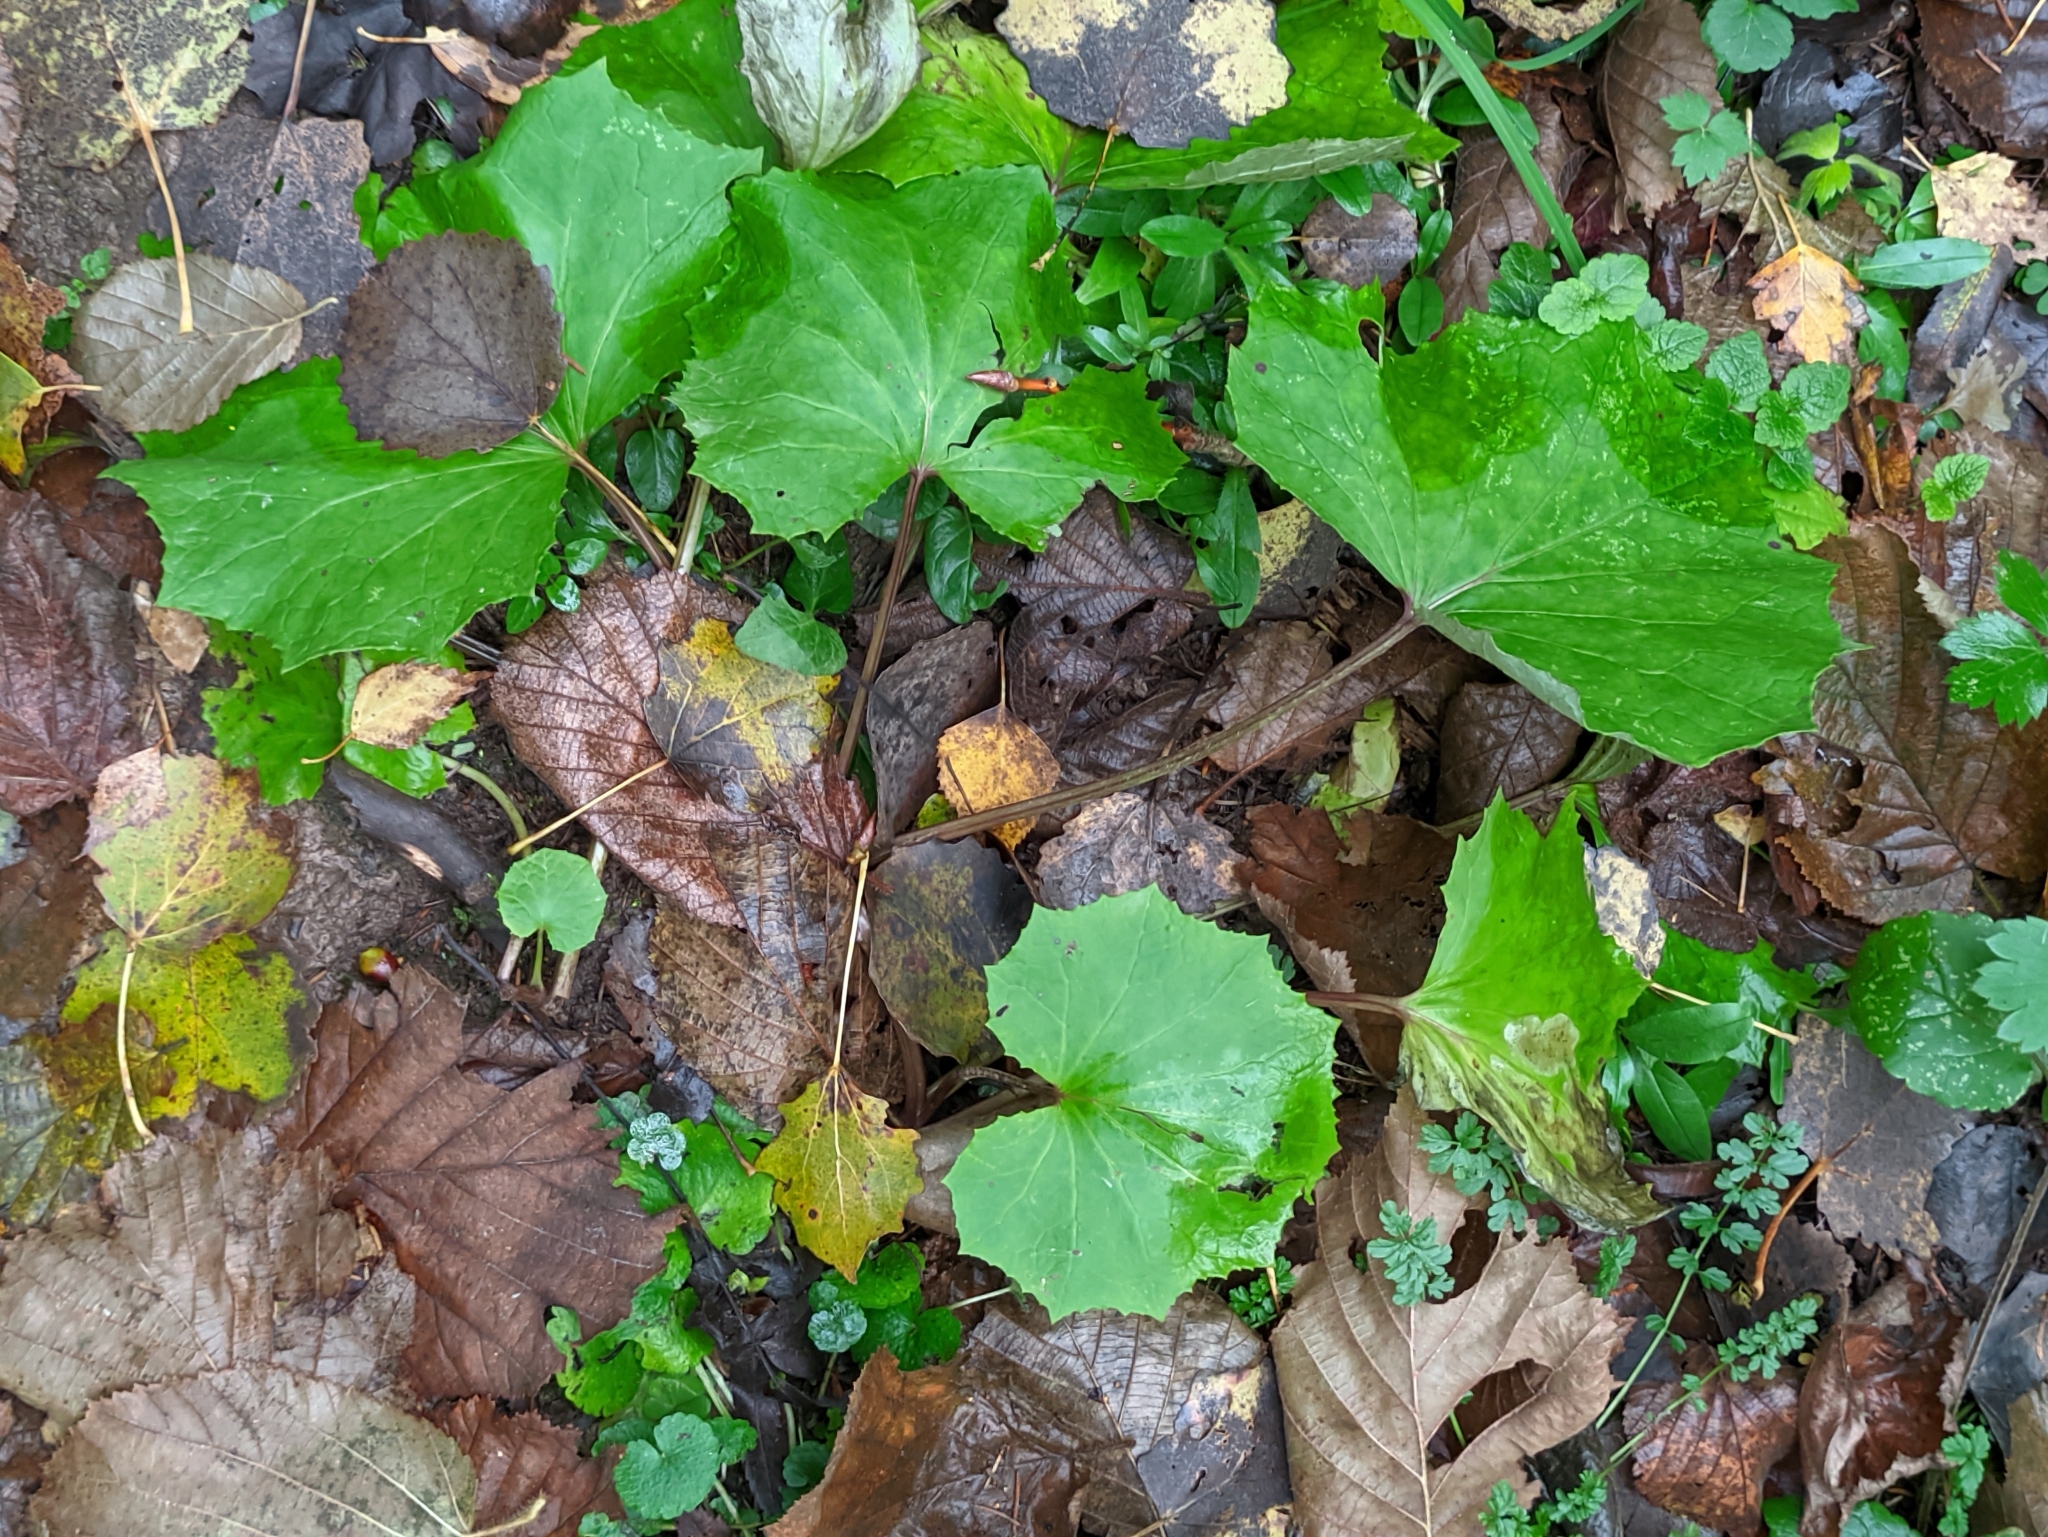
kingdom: Plantae
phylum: Tracheophyta
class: Magnoliopsida
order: Asterales
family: Asteraceae
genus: Tussilago
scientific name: Tussilago farfara
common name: Coltsfoot
